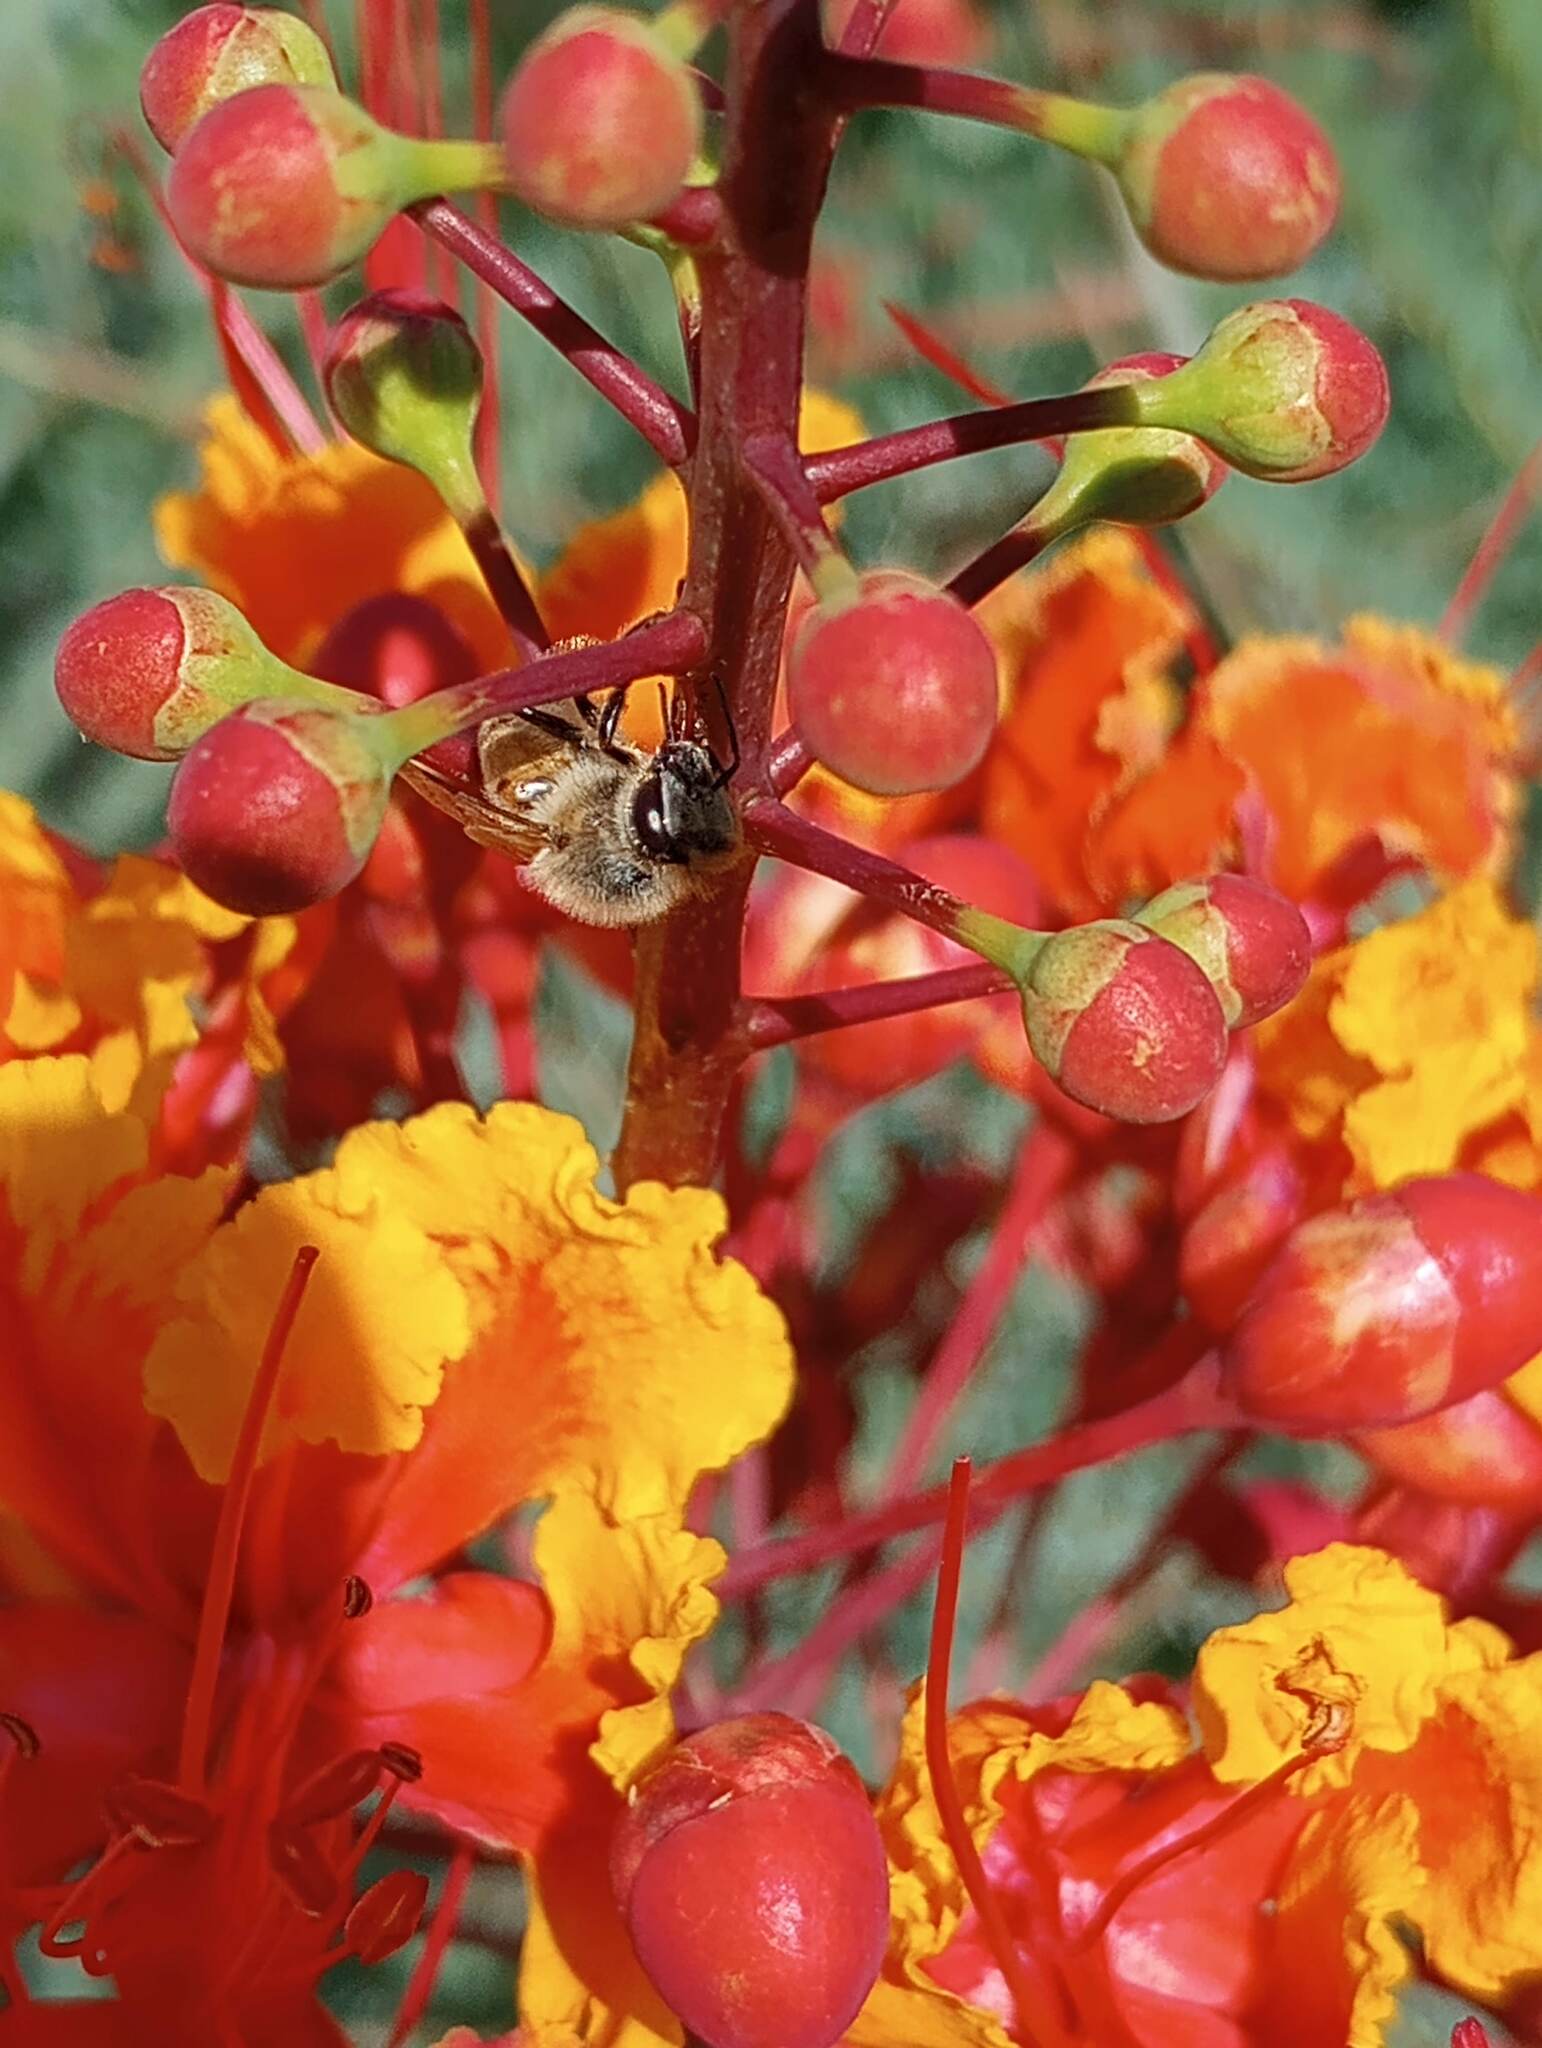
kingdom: Animalia
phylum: Arthropoda
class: Insecta
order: Hymenoptera
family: Apidae
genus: Apis
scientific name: Apis mellifera
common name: Honey bee
